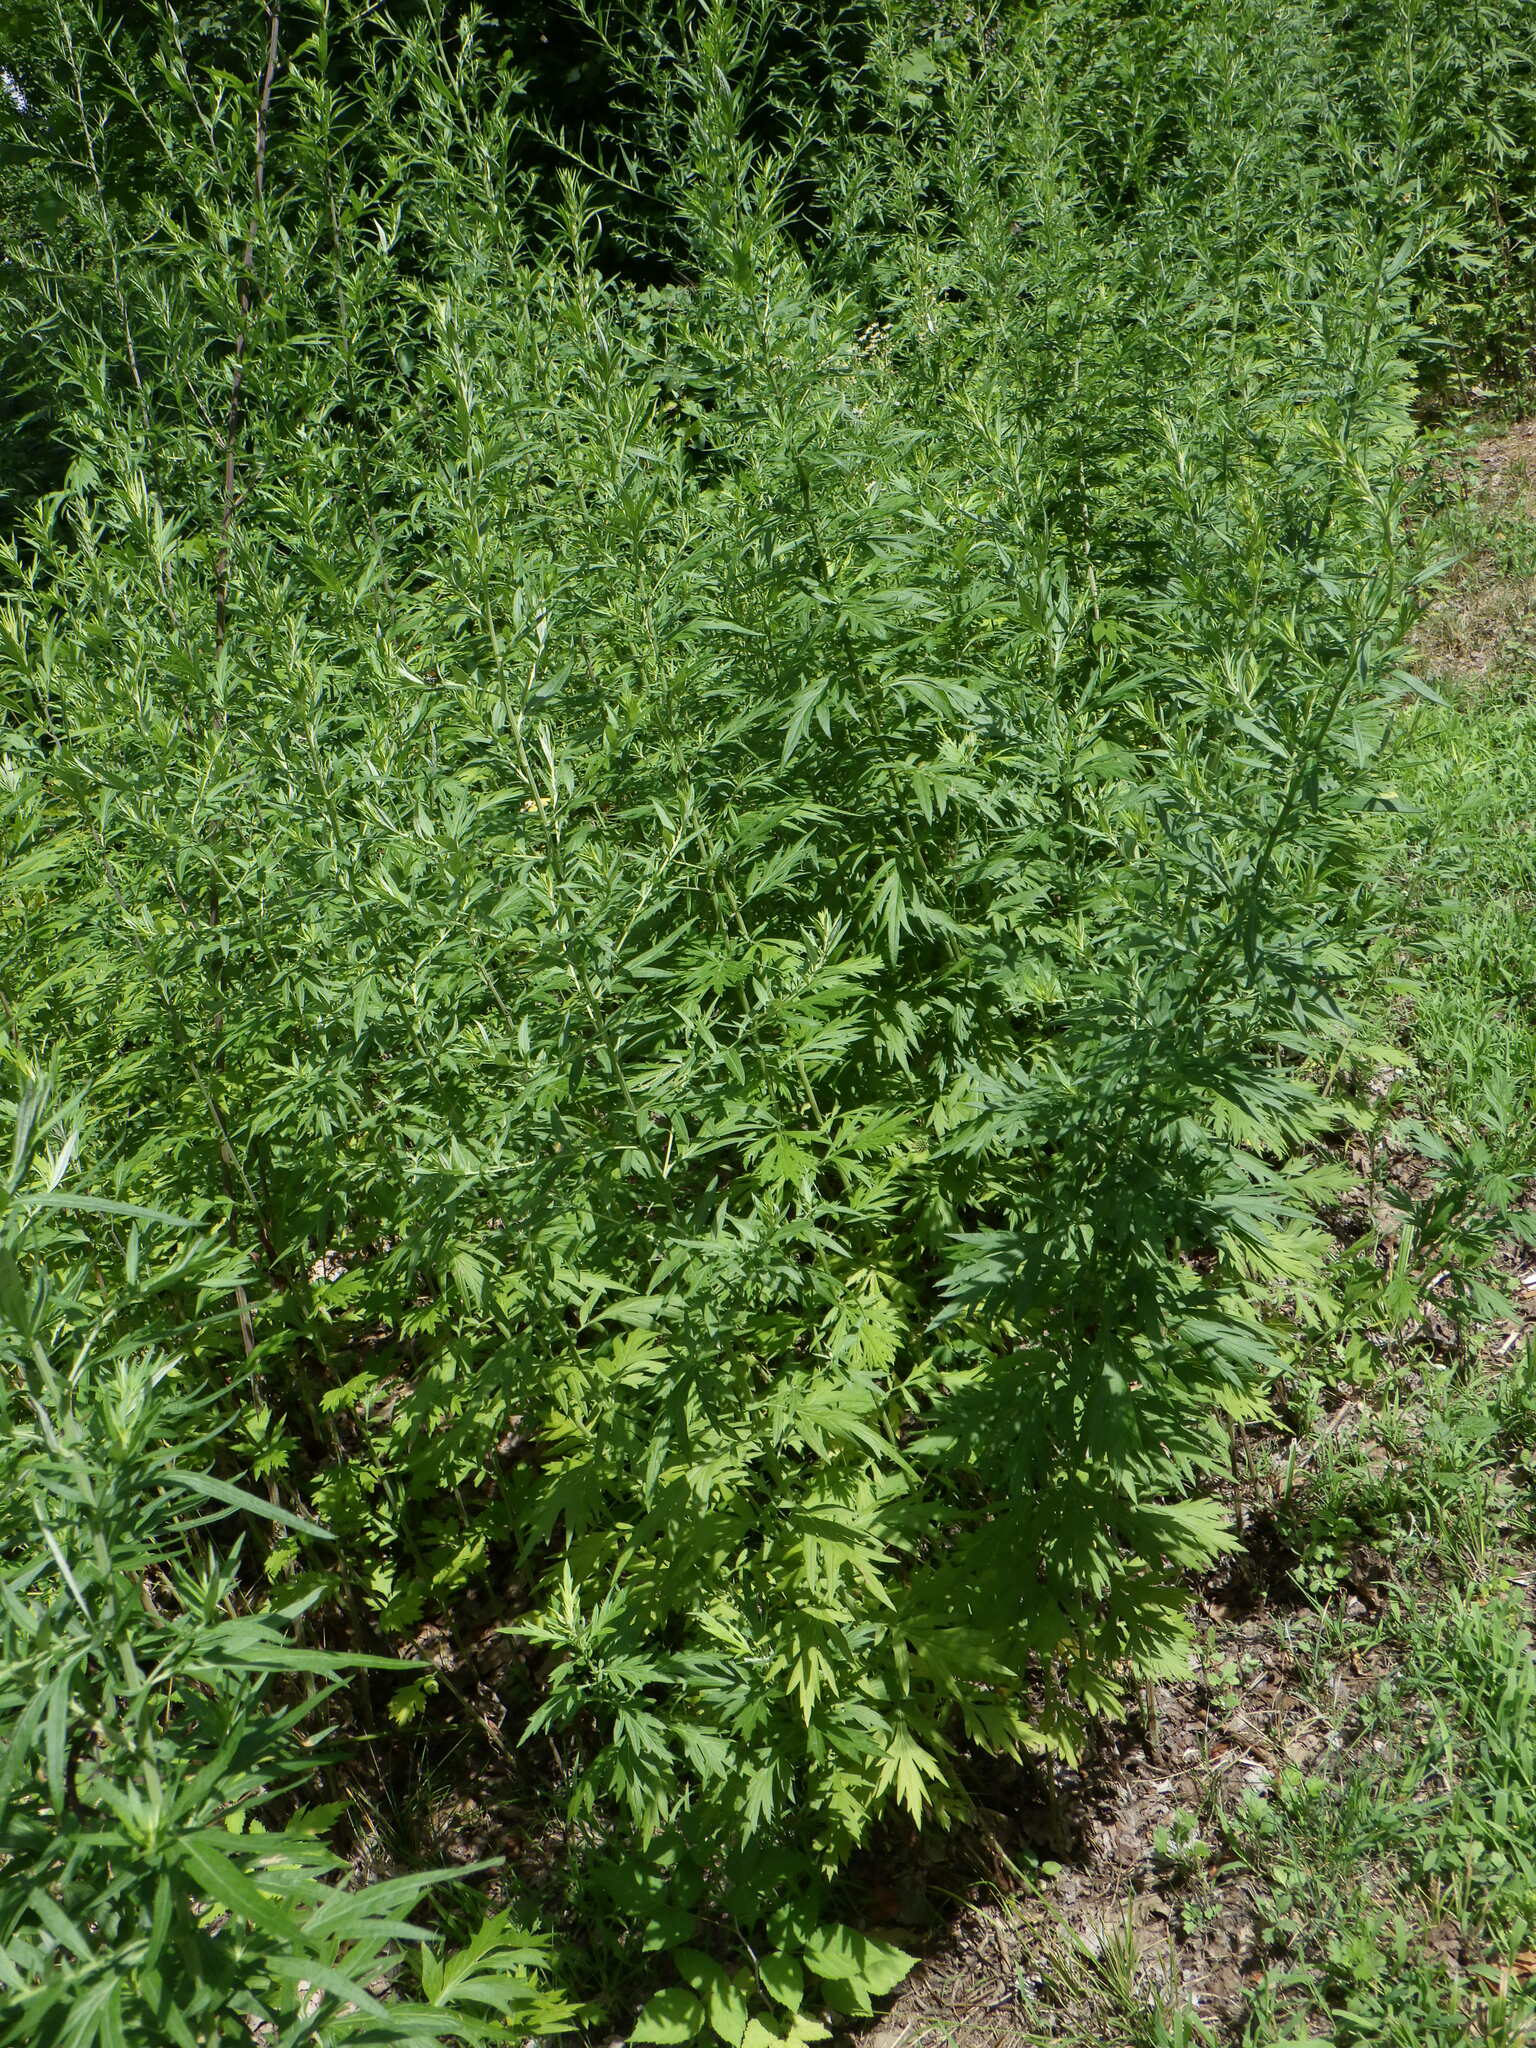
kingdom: Plantae
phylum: Tracheophyta
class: Magnoliopsida
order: Asterales
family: Asteraceae
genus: Artemisia
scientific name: Artemisia vulgaris
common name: Mugwort
